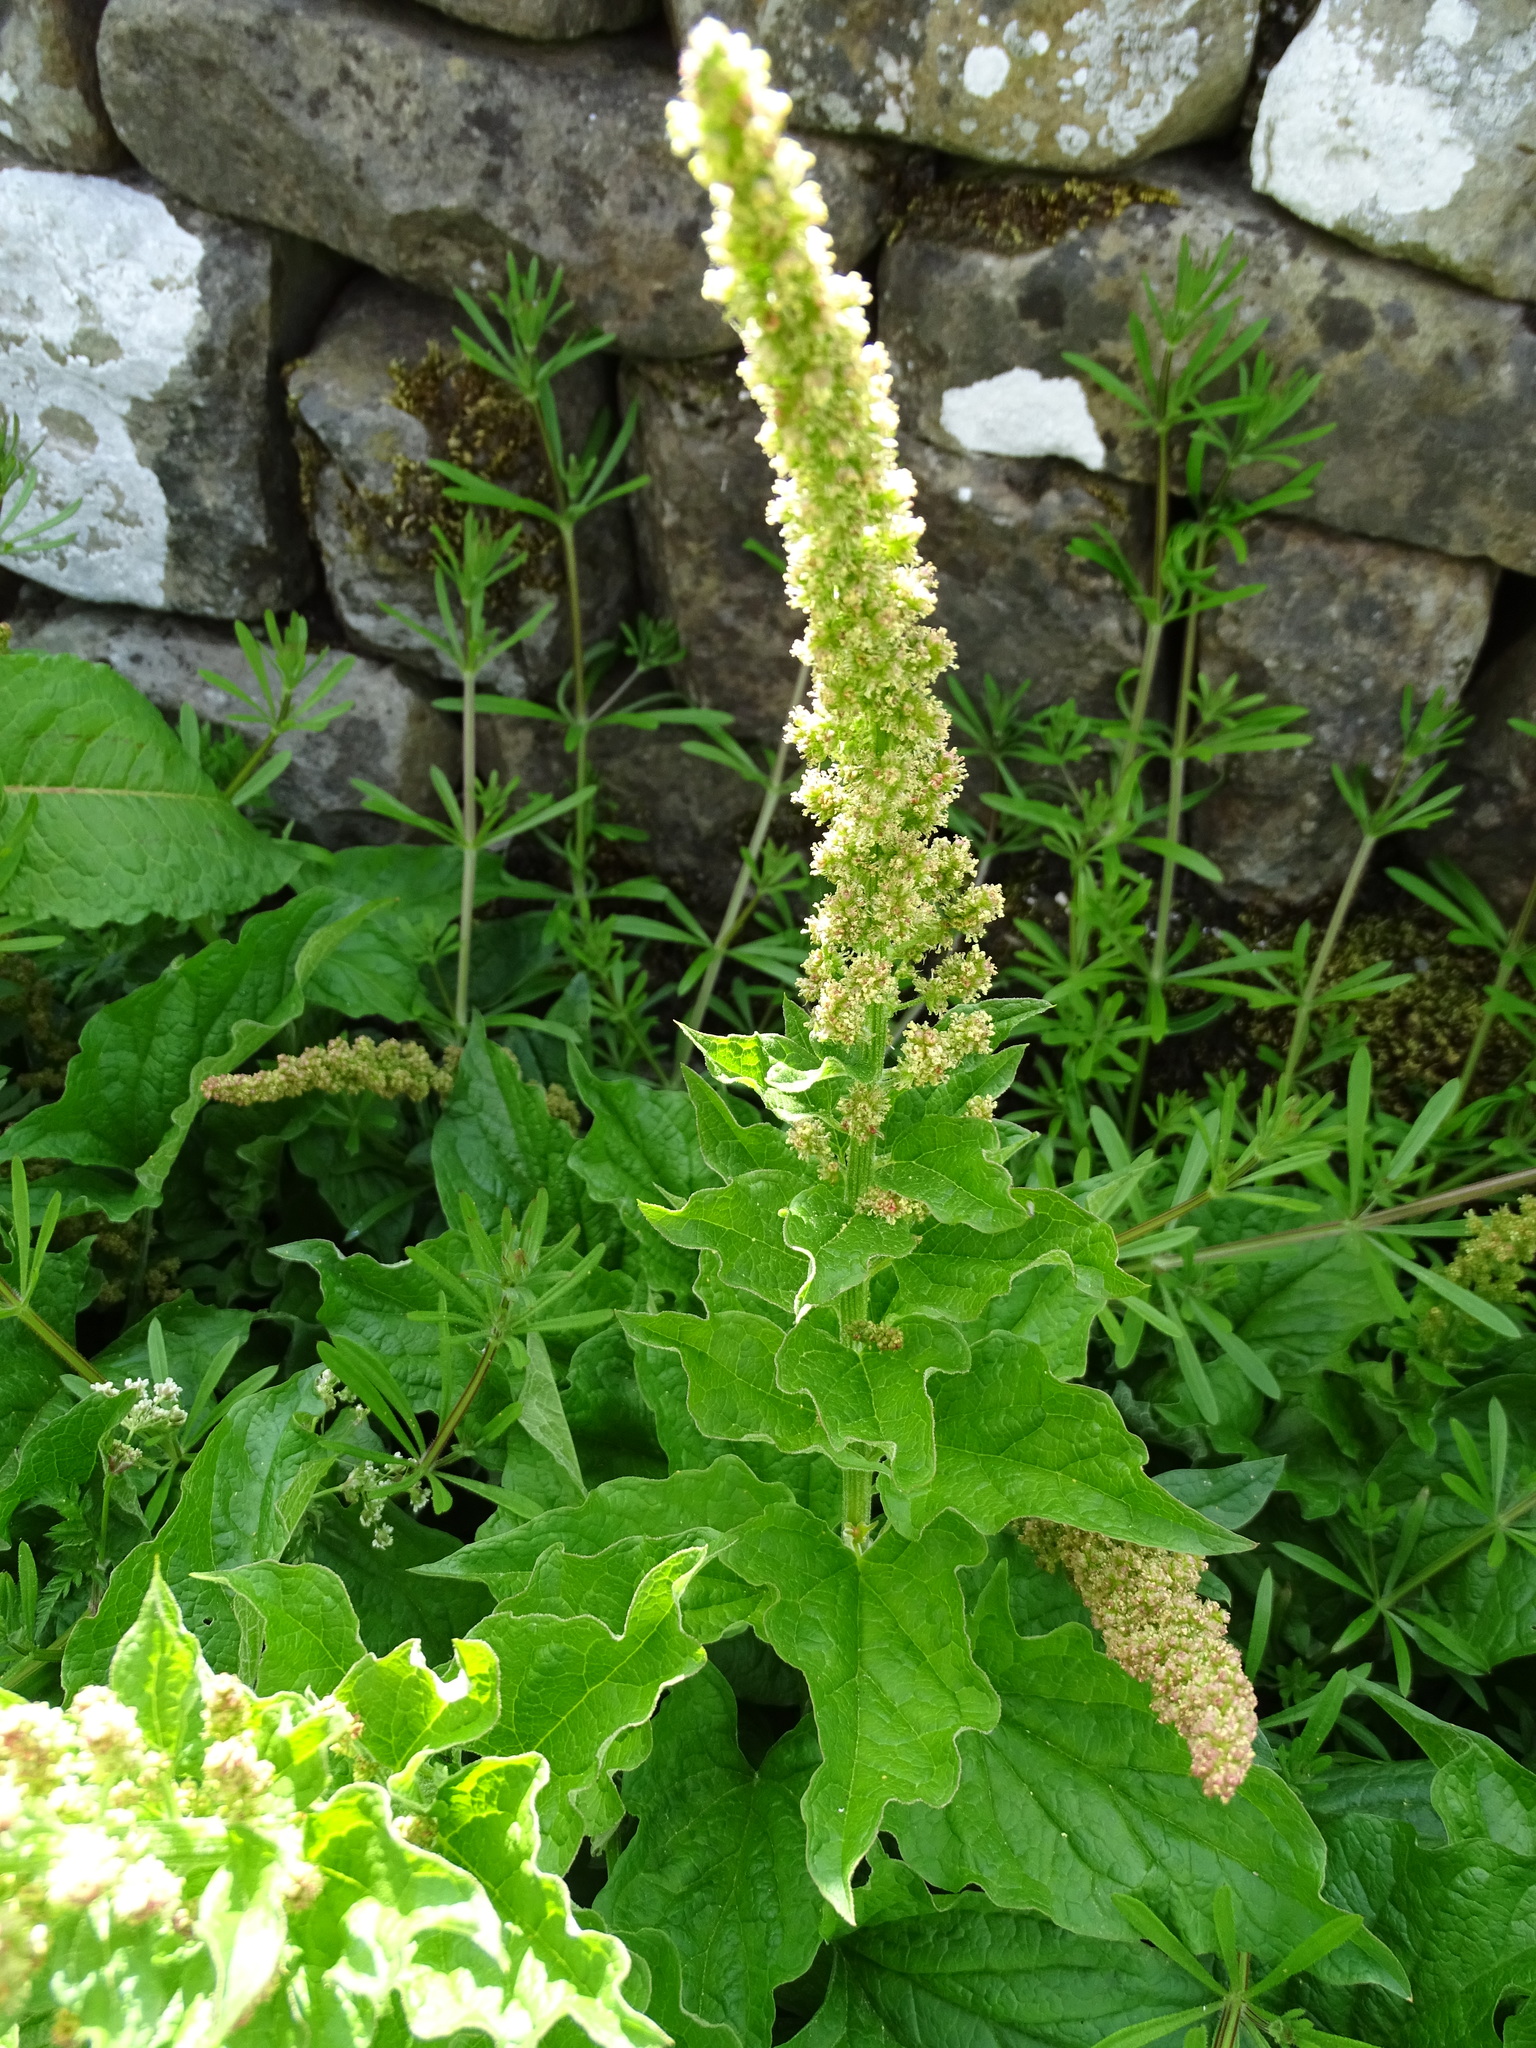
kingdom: Plantae
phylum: Tracheophyta
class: Magnoliopsida
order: Caryophyllales
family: Amaranthaceae
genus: Blitum
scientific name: Blitum bonus-henricus
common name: Good king henry
